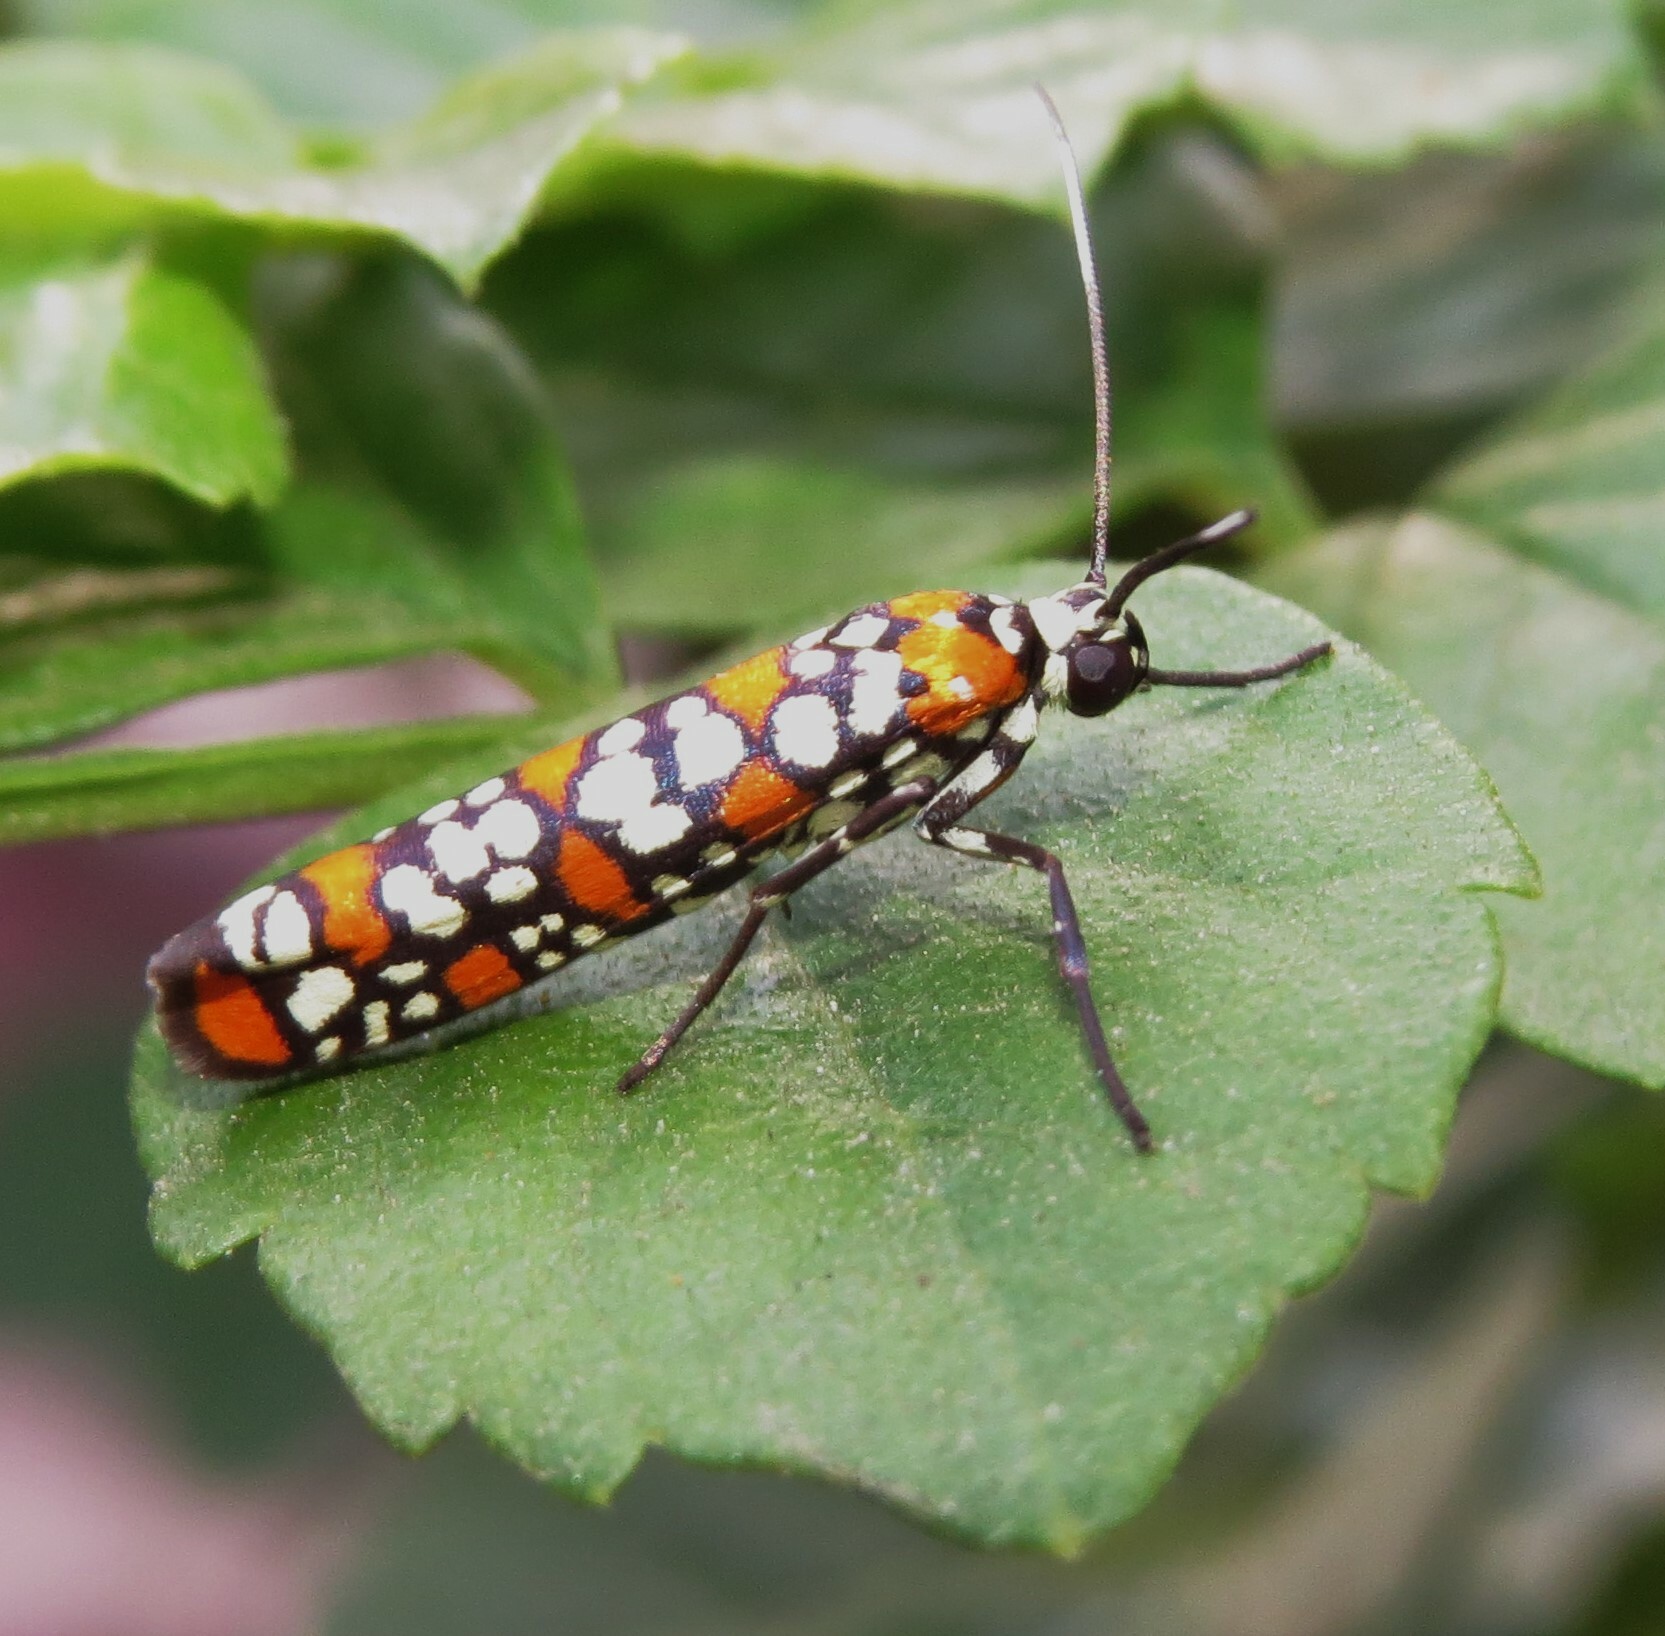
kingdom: Animalia
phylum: Arthropoda
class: Insecta
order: Lepidoptera
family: Attevidae
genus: Atteva
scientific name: Atteva punctella
